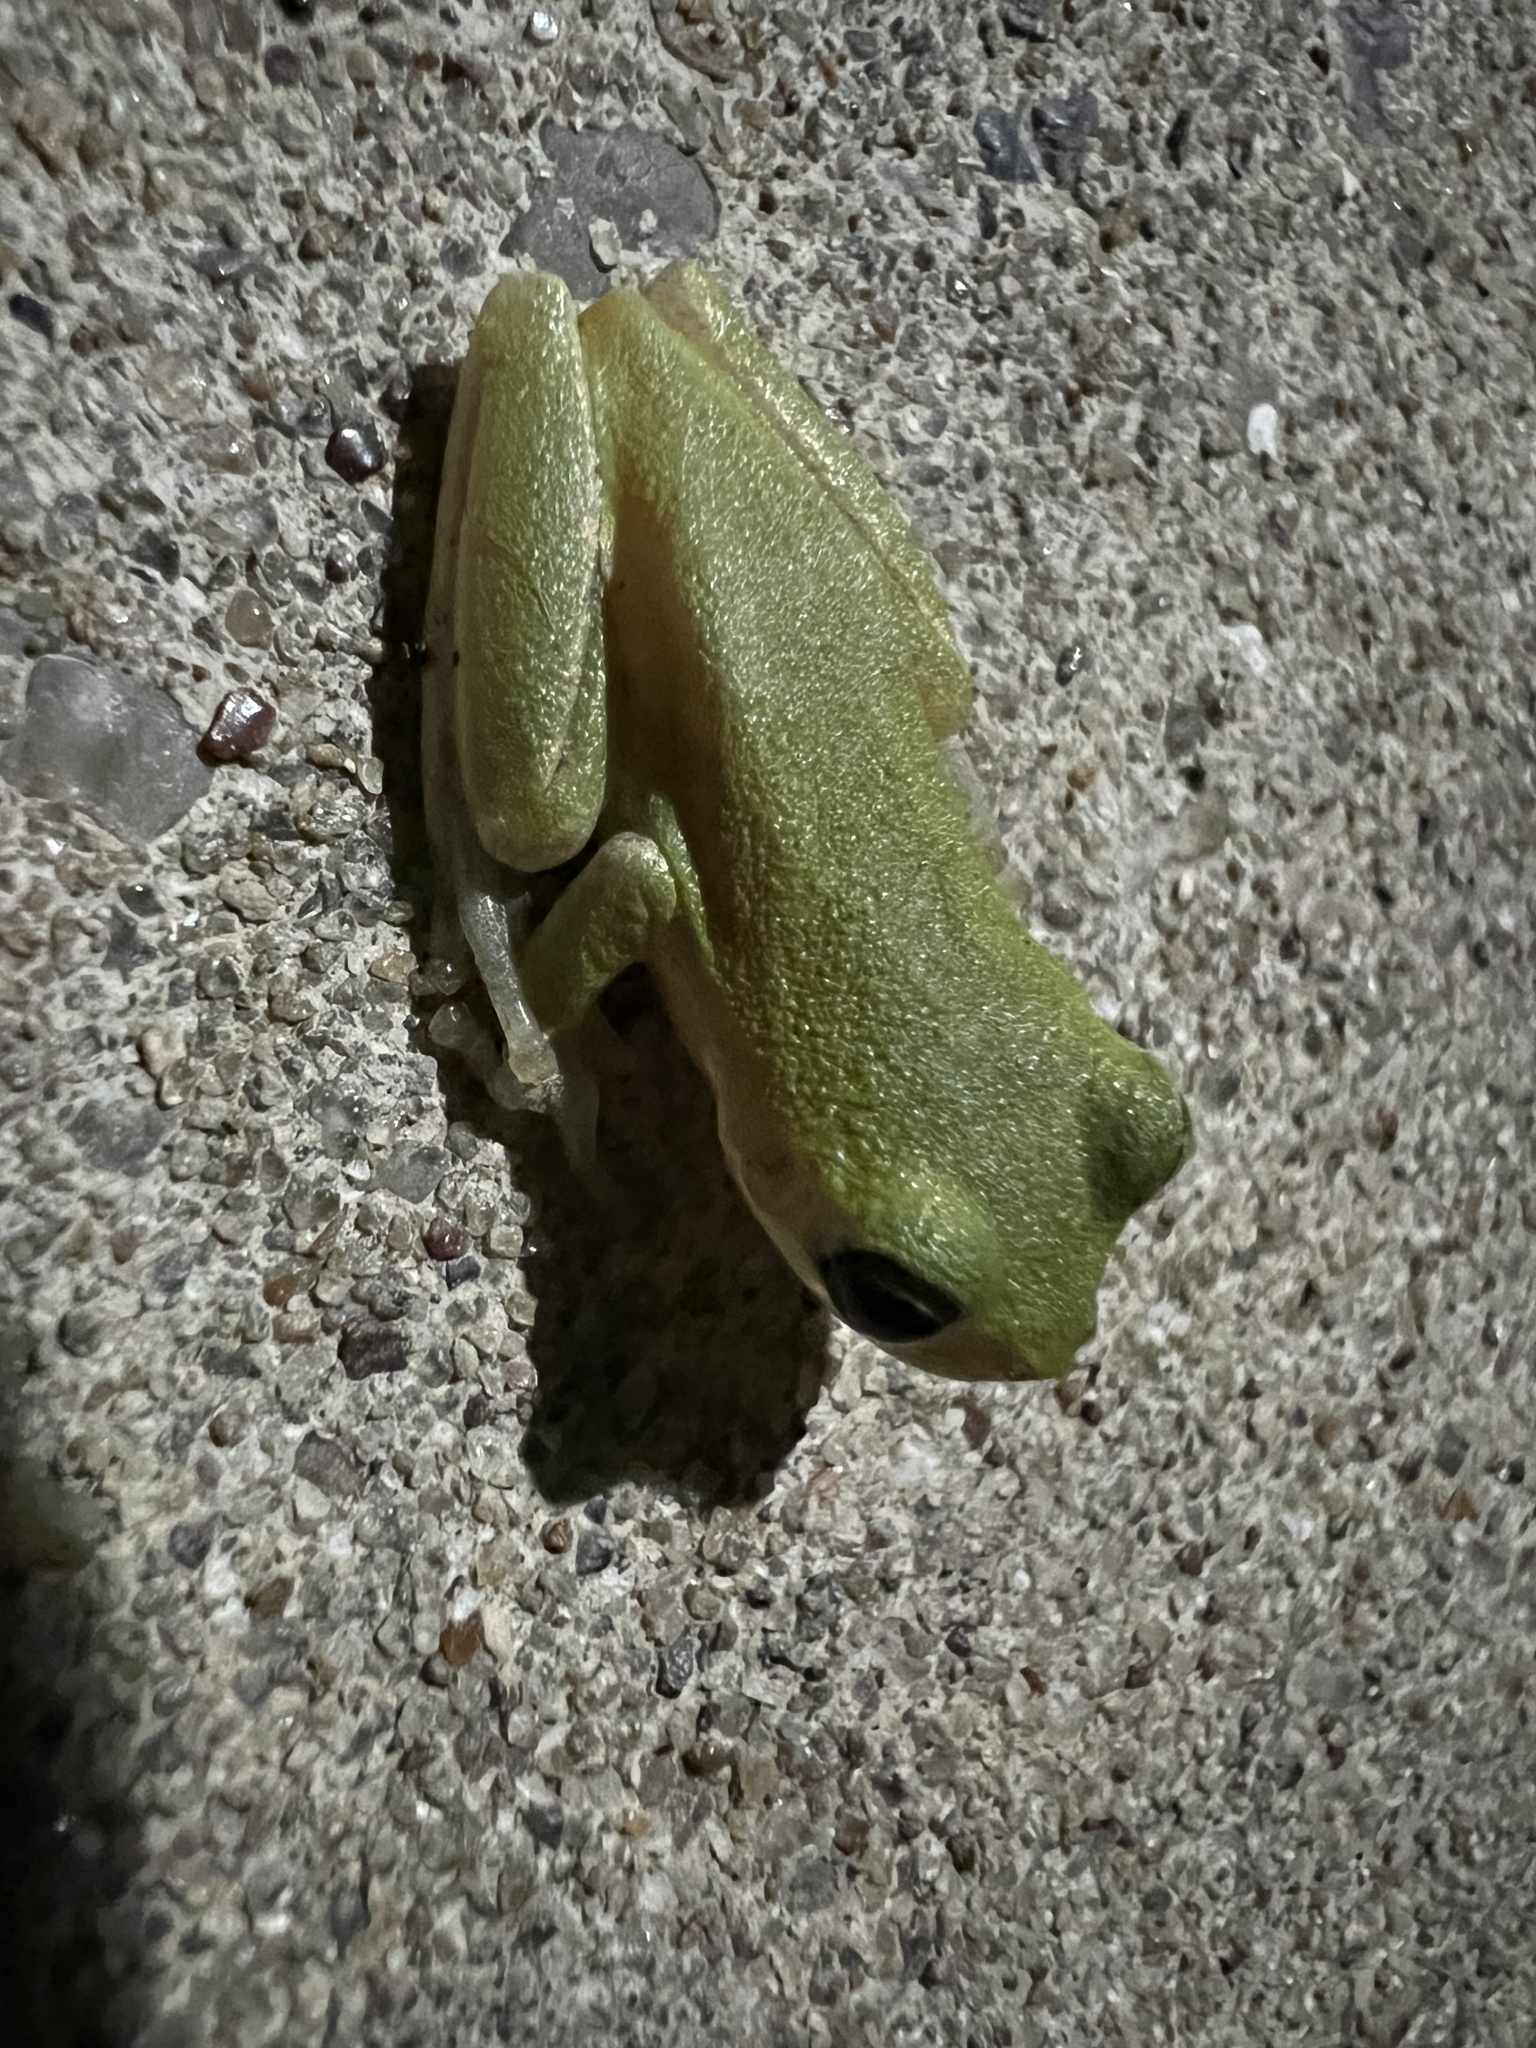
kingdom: Animalia
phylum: Chordata
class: Amphibia
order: Anura
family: Hylidae
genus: Dryophytes
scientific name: Dryophytes squirellus
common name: Squirrel treefrog
